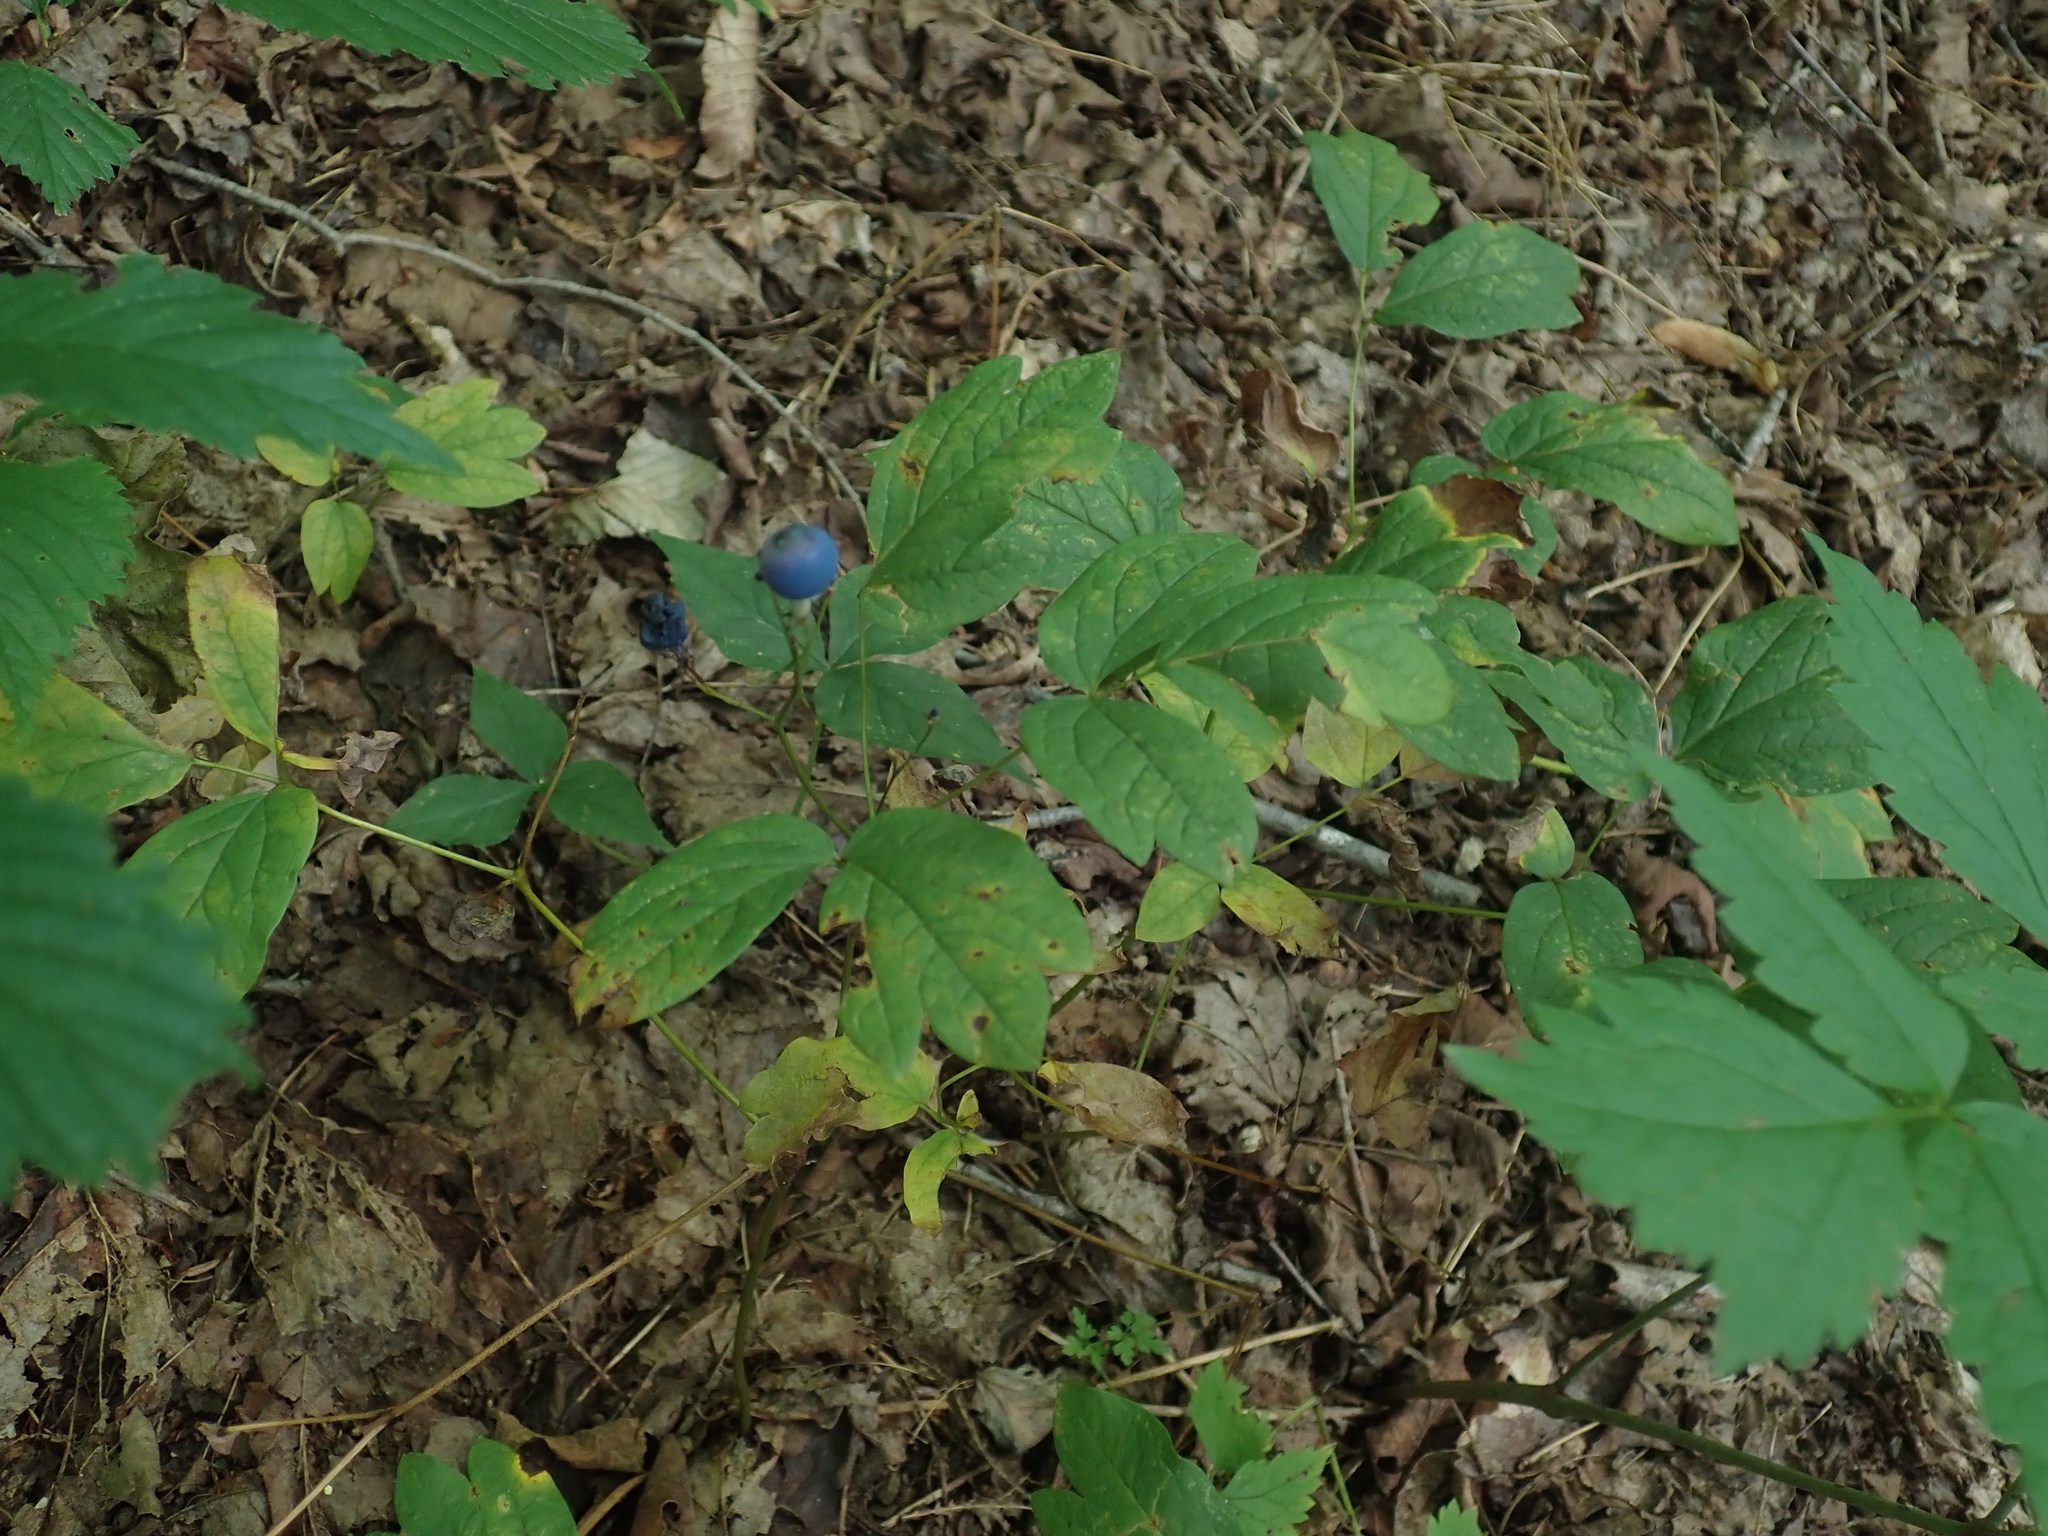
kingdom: Plantae
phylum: Tracheophyta
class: Magnoliopsida
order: Ranunculales
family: Berberidaceae
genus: Caulophyllum
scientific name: Caulophyllum
